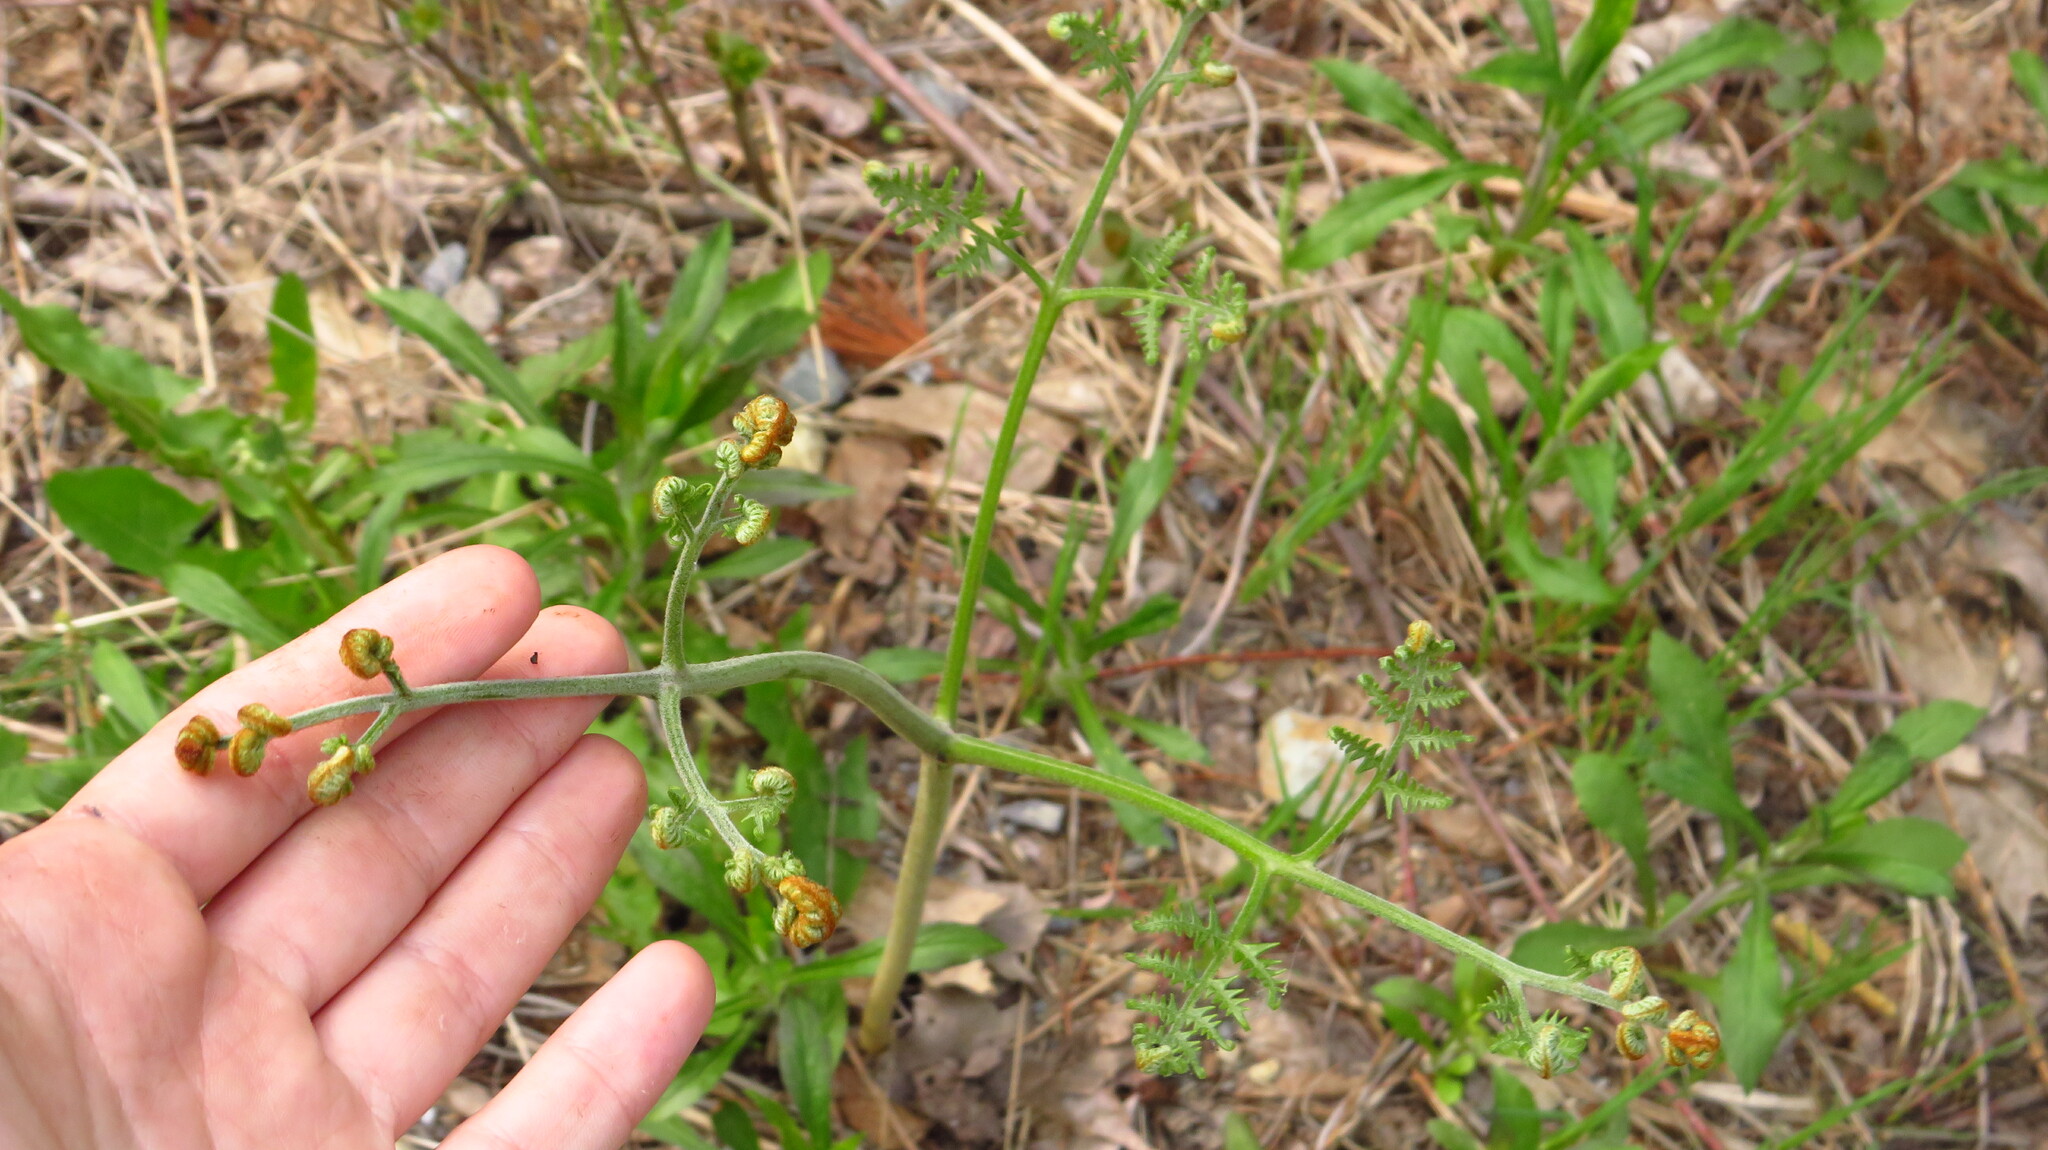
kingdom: Plantae
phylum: Tracheophyta
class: Polypodiopsida
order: Polypodiales
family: Dennstaedtiaceae
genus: Pteridium
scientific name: Pteridium aquilinum
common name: Bracken
